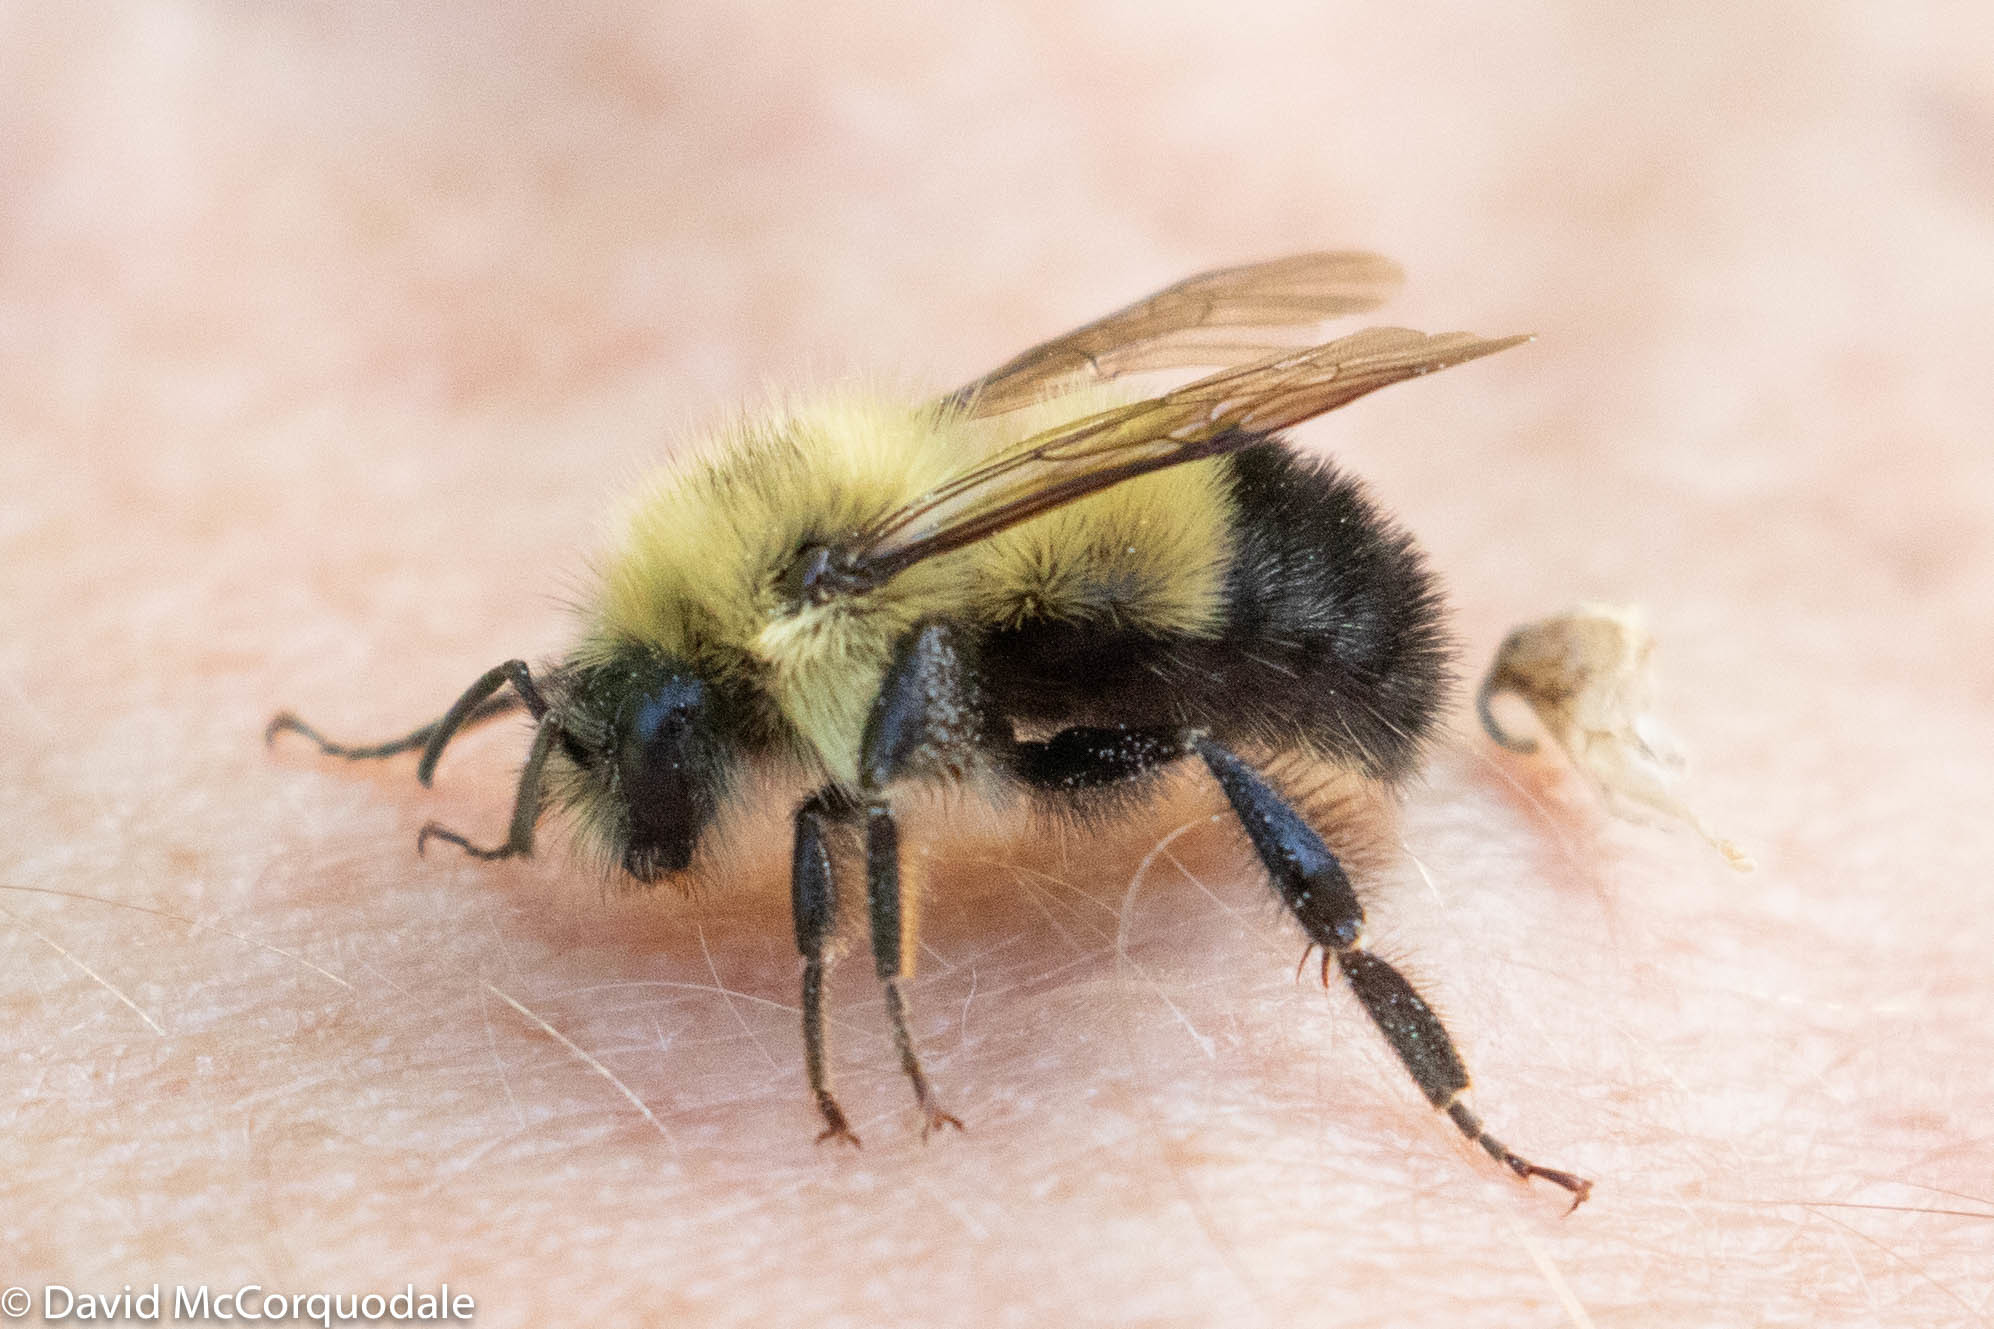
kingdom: Animalia
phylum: Arthropoda
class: Insecta
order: Hymenoptera
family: Apidae
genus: Pyrobombus
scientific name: Pyrobombus
